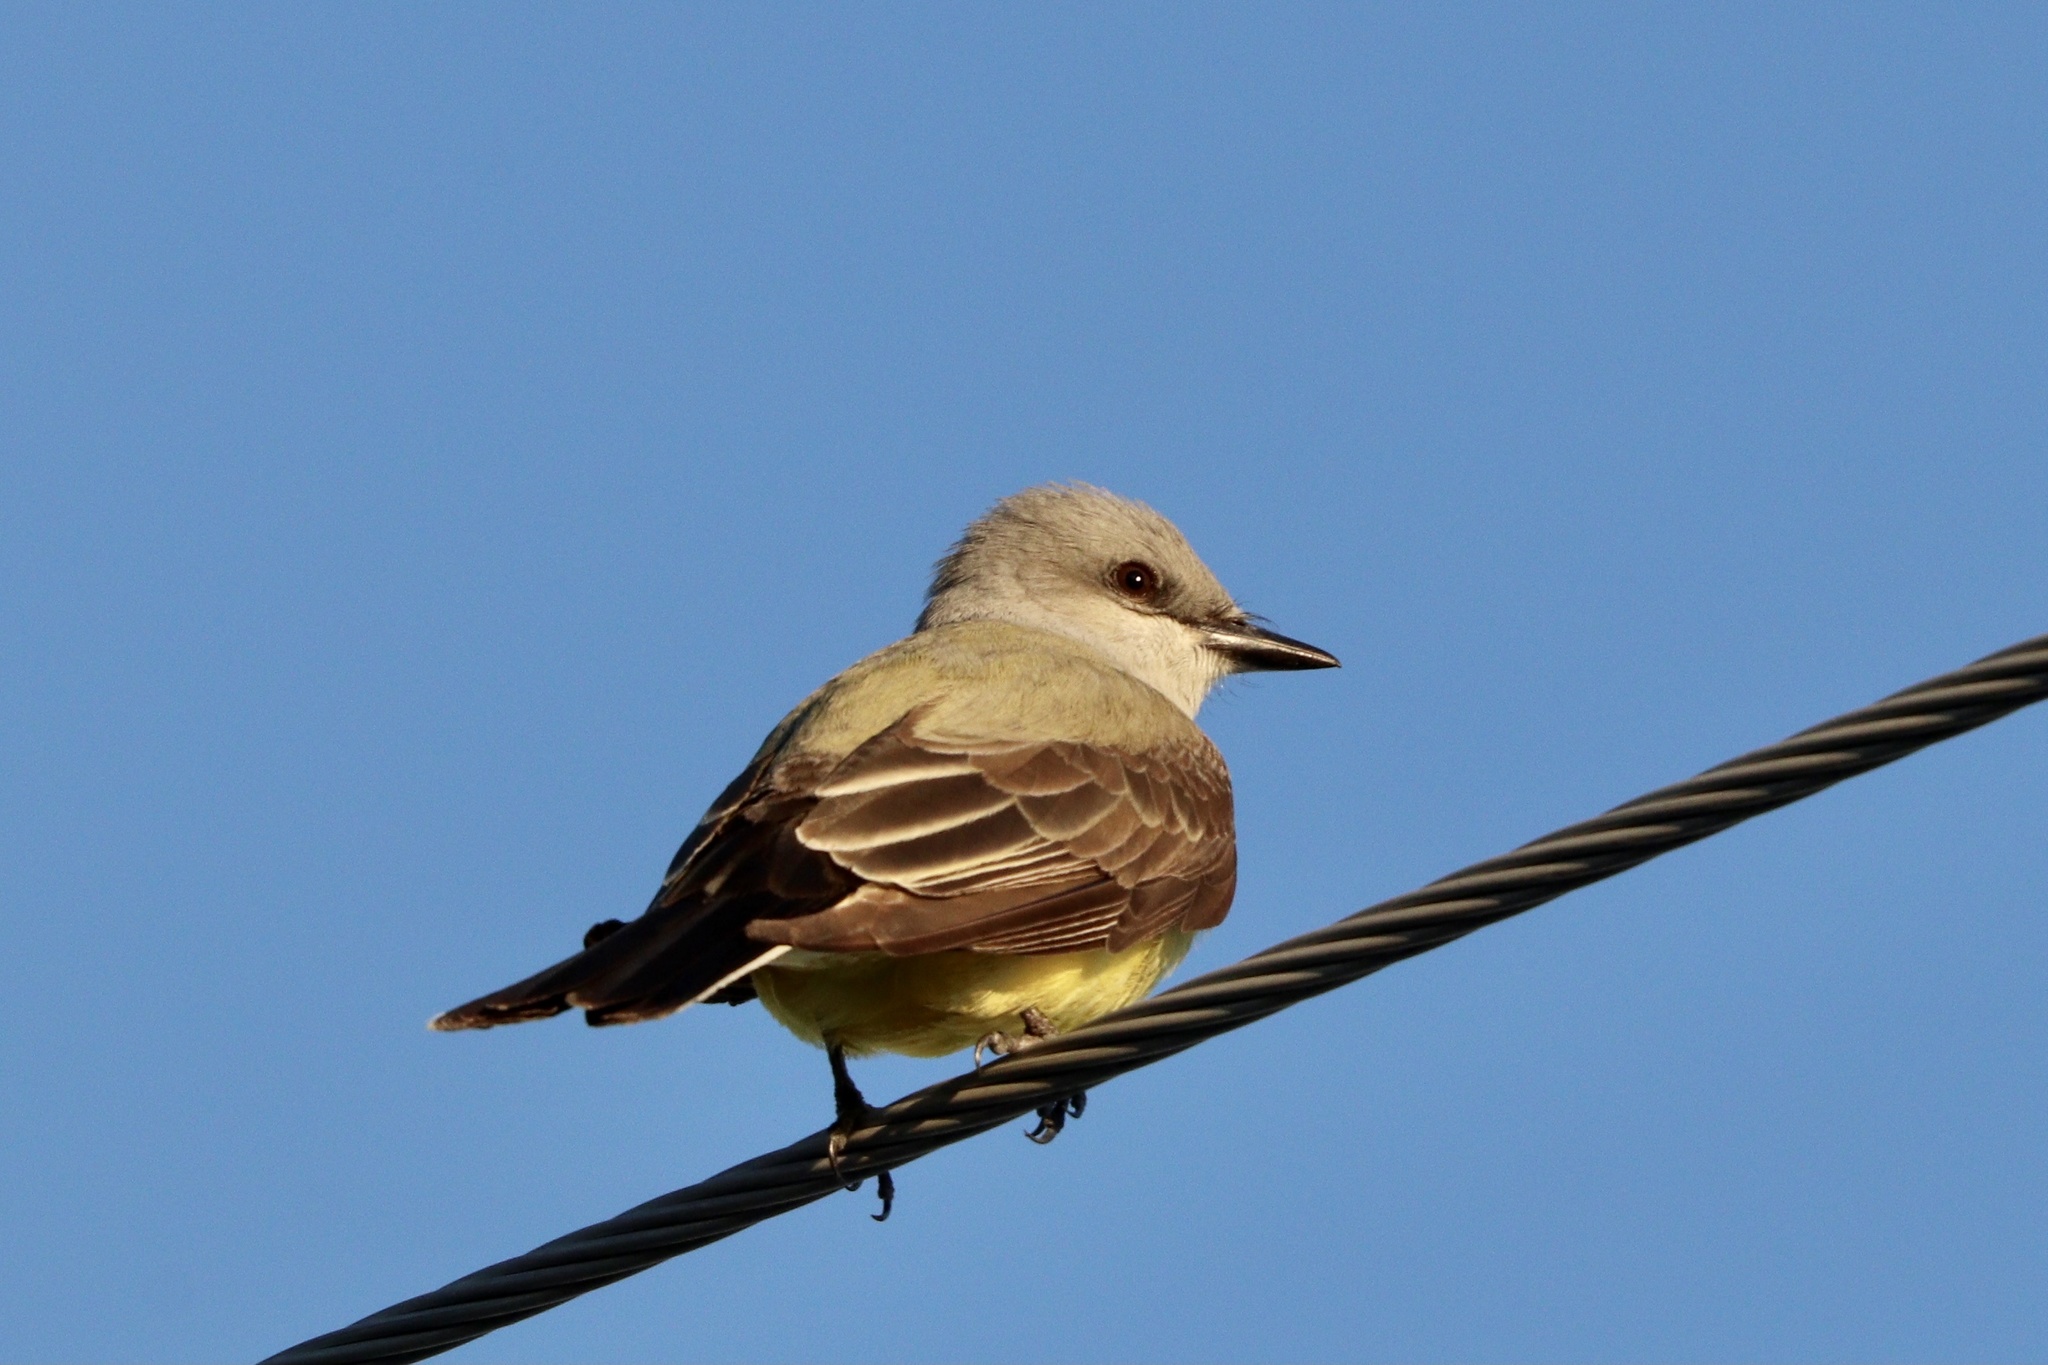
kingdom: Animalia
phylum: Chordata
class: Aves
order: Passeriformes
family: Tyrannidae
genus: Tyrannus
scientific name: Tyrannus verticalis
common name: Western kingbird
